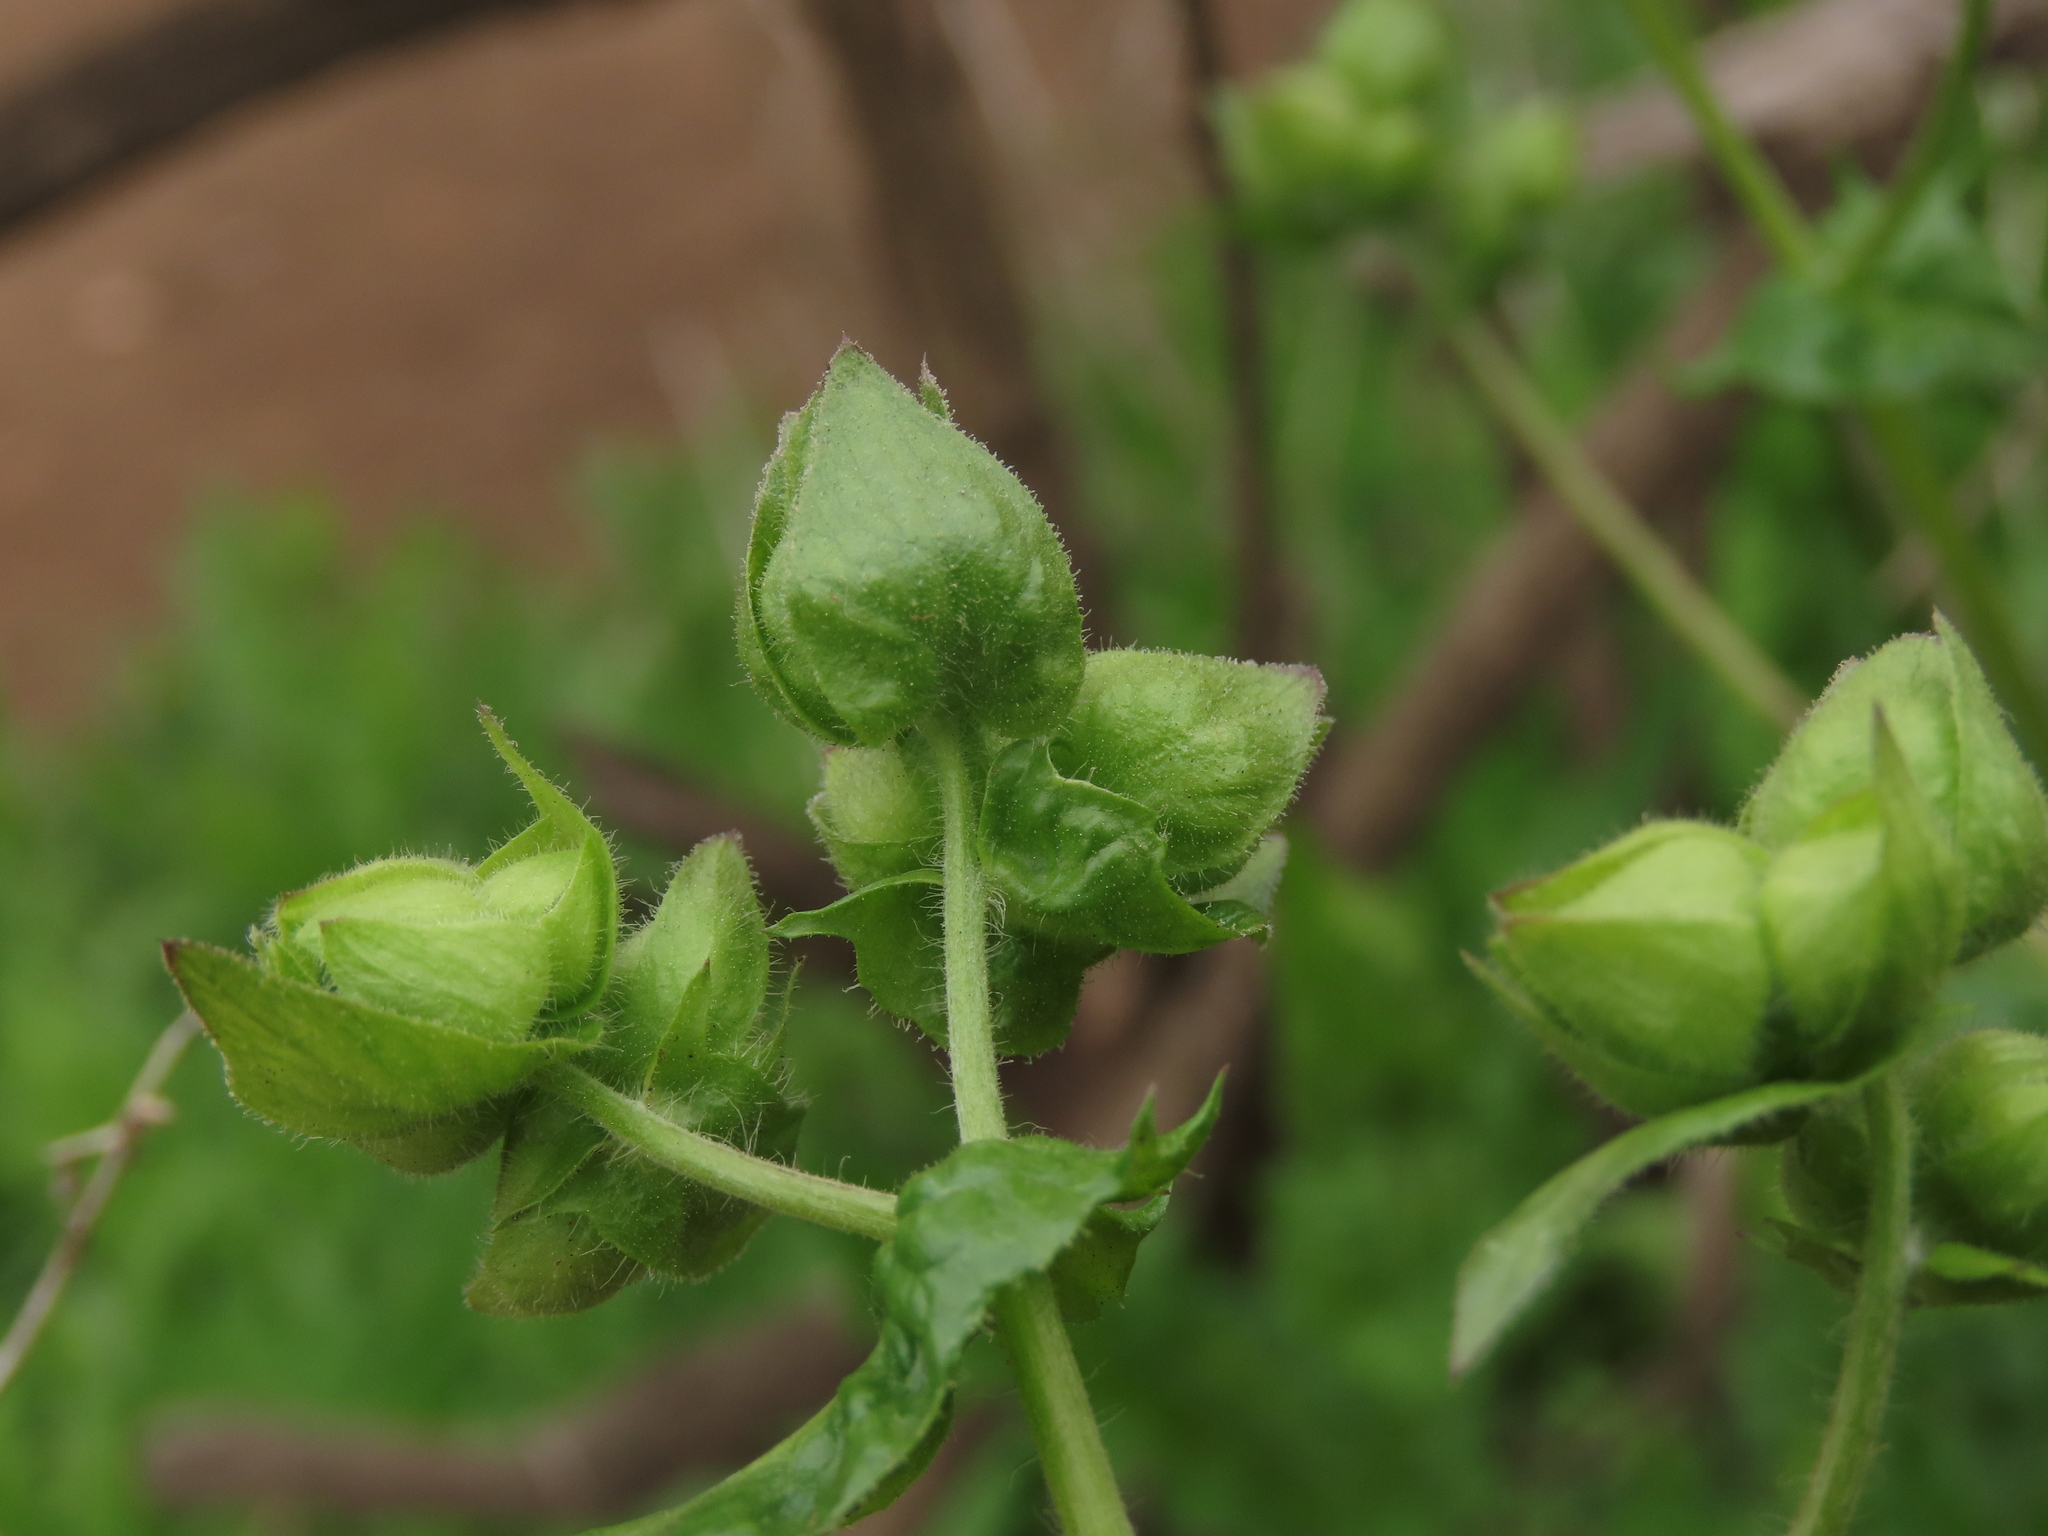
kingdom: Plantae
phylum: Tracheophyta
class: Magnoliopsida
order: Asterales
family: Asteraceae
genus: Moscharia
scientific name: Moscharia pinnatifida
